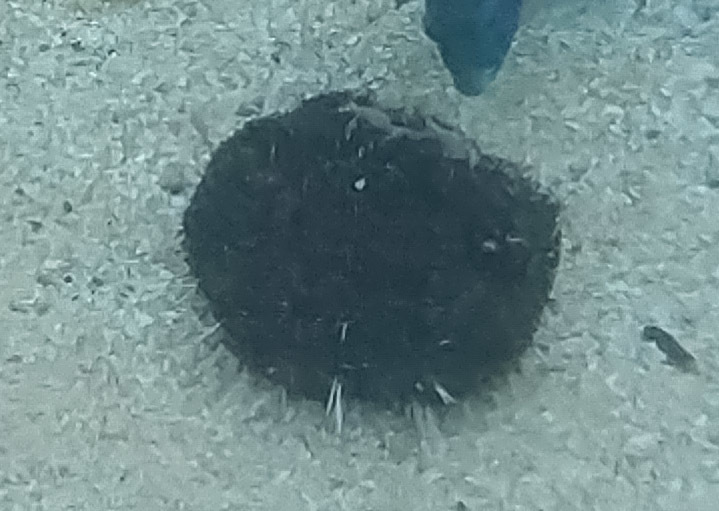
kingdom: Animalia
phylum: Echinodermata
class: Echinoidea
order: Camarodonta
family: Toxopneustidae
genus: Tripneustes
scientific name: Tripneustes gratilla
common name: Bischofsmützenseeigel
